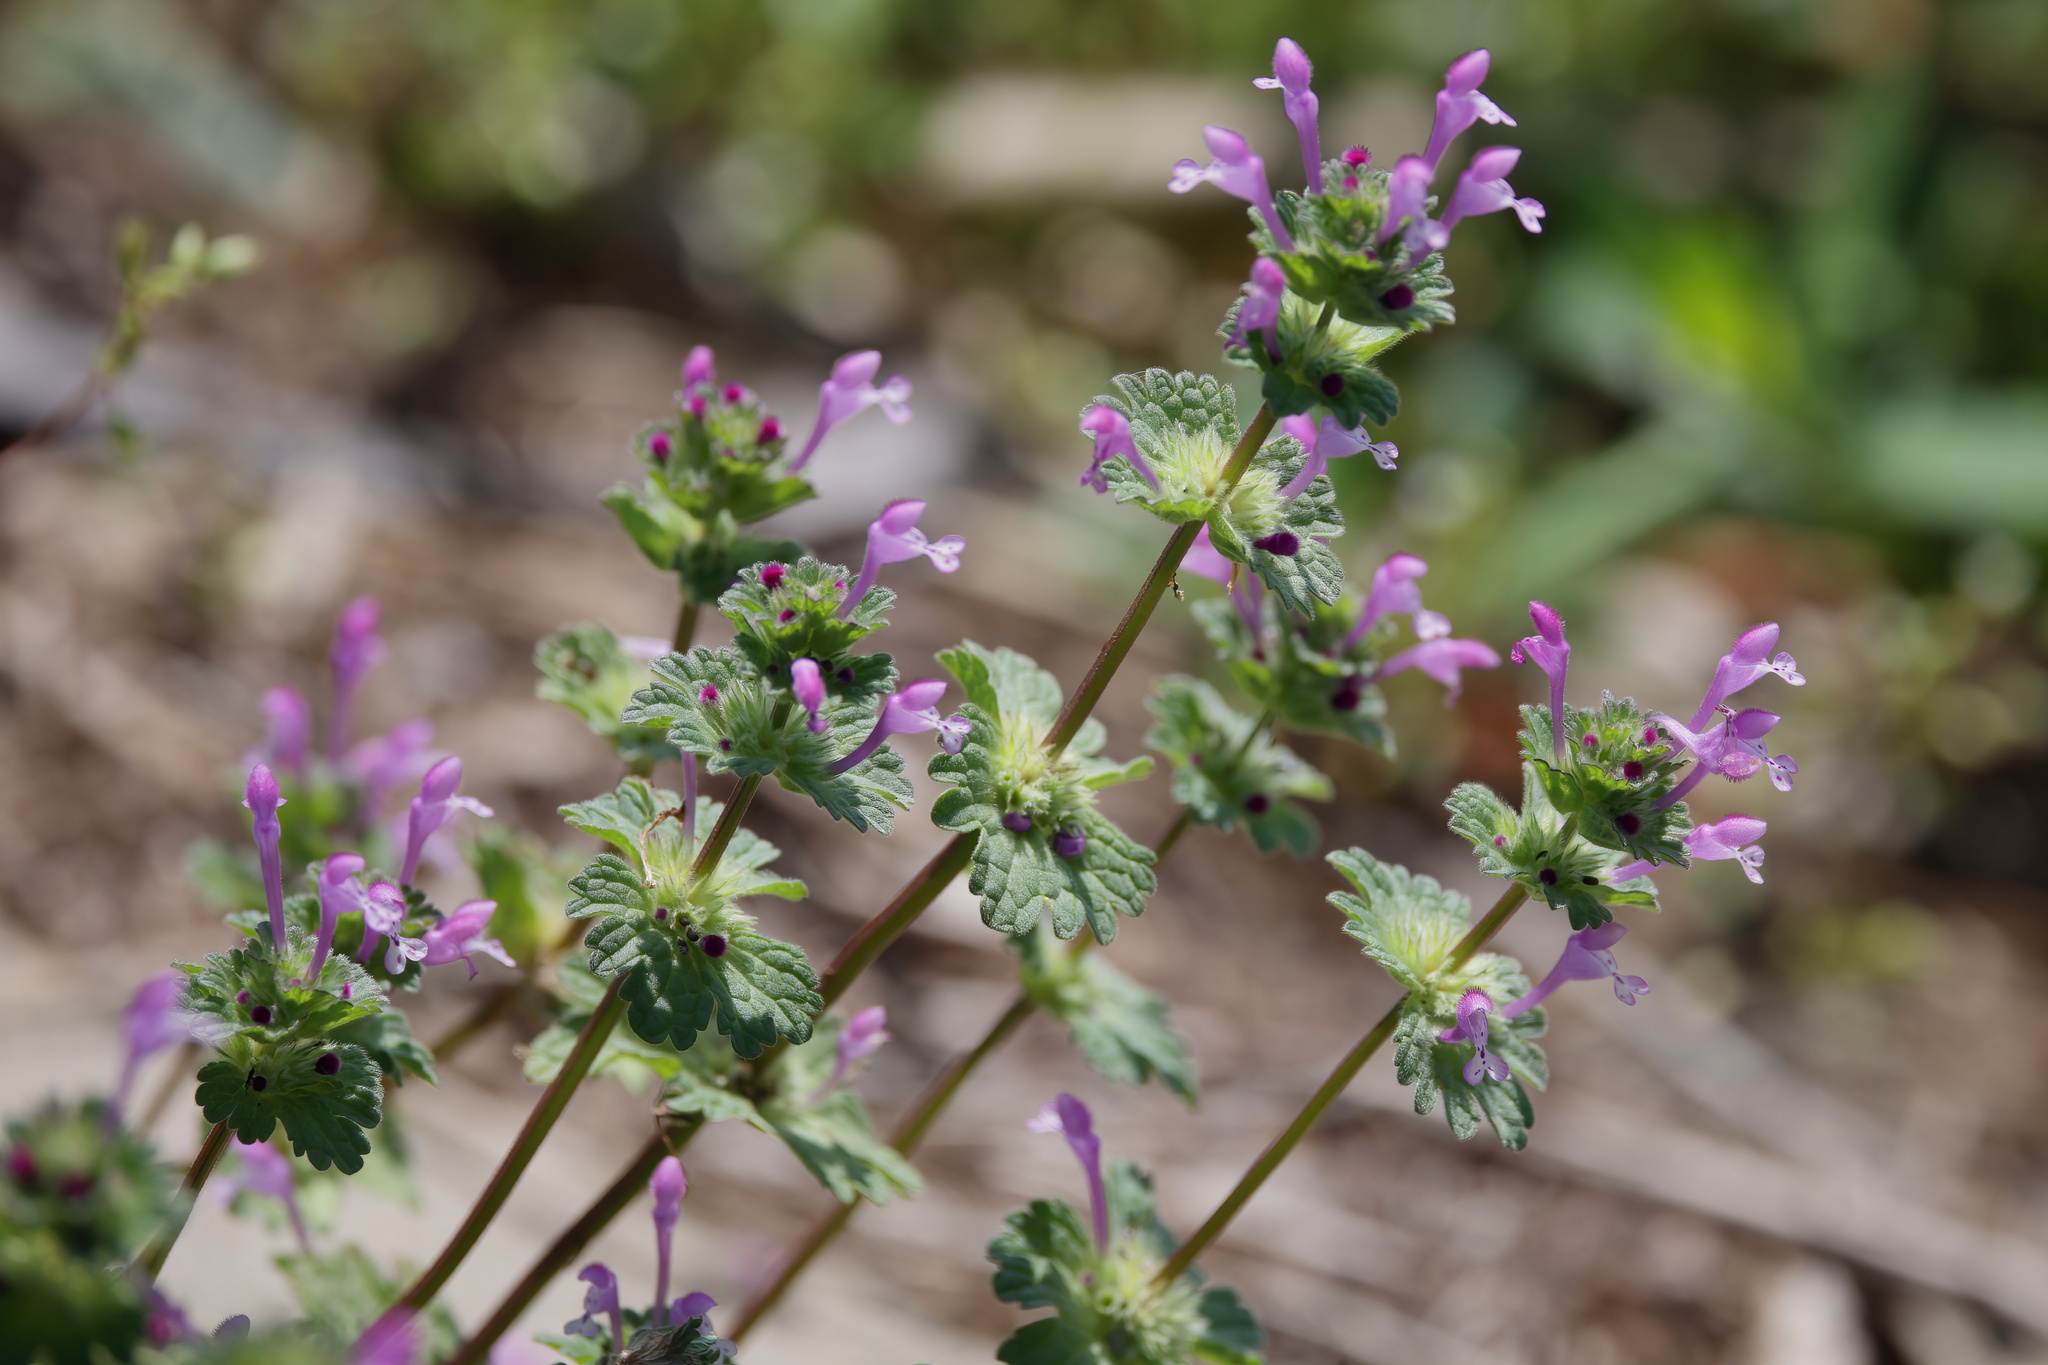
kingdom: Plantae
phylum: Tracheophyta
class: Magnoliopsida
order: Lamiales
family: Lamiaceae
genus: Lamium
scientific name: Lamium amplexicaule
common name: Henbit dead-nettle
